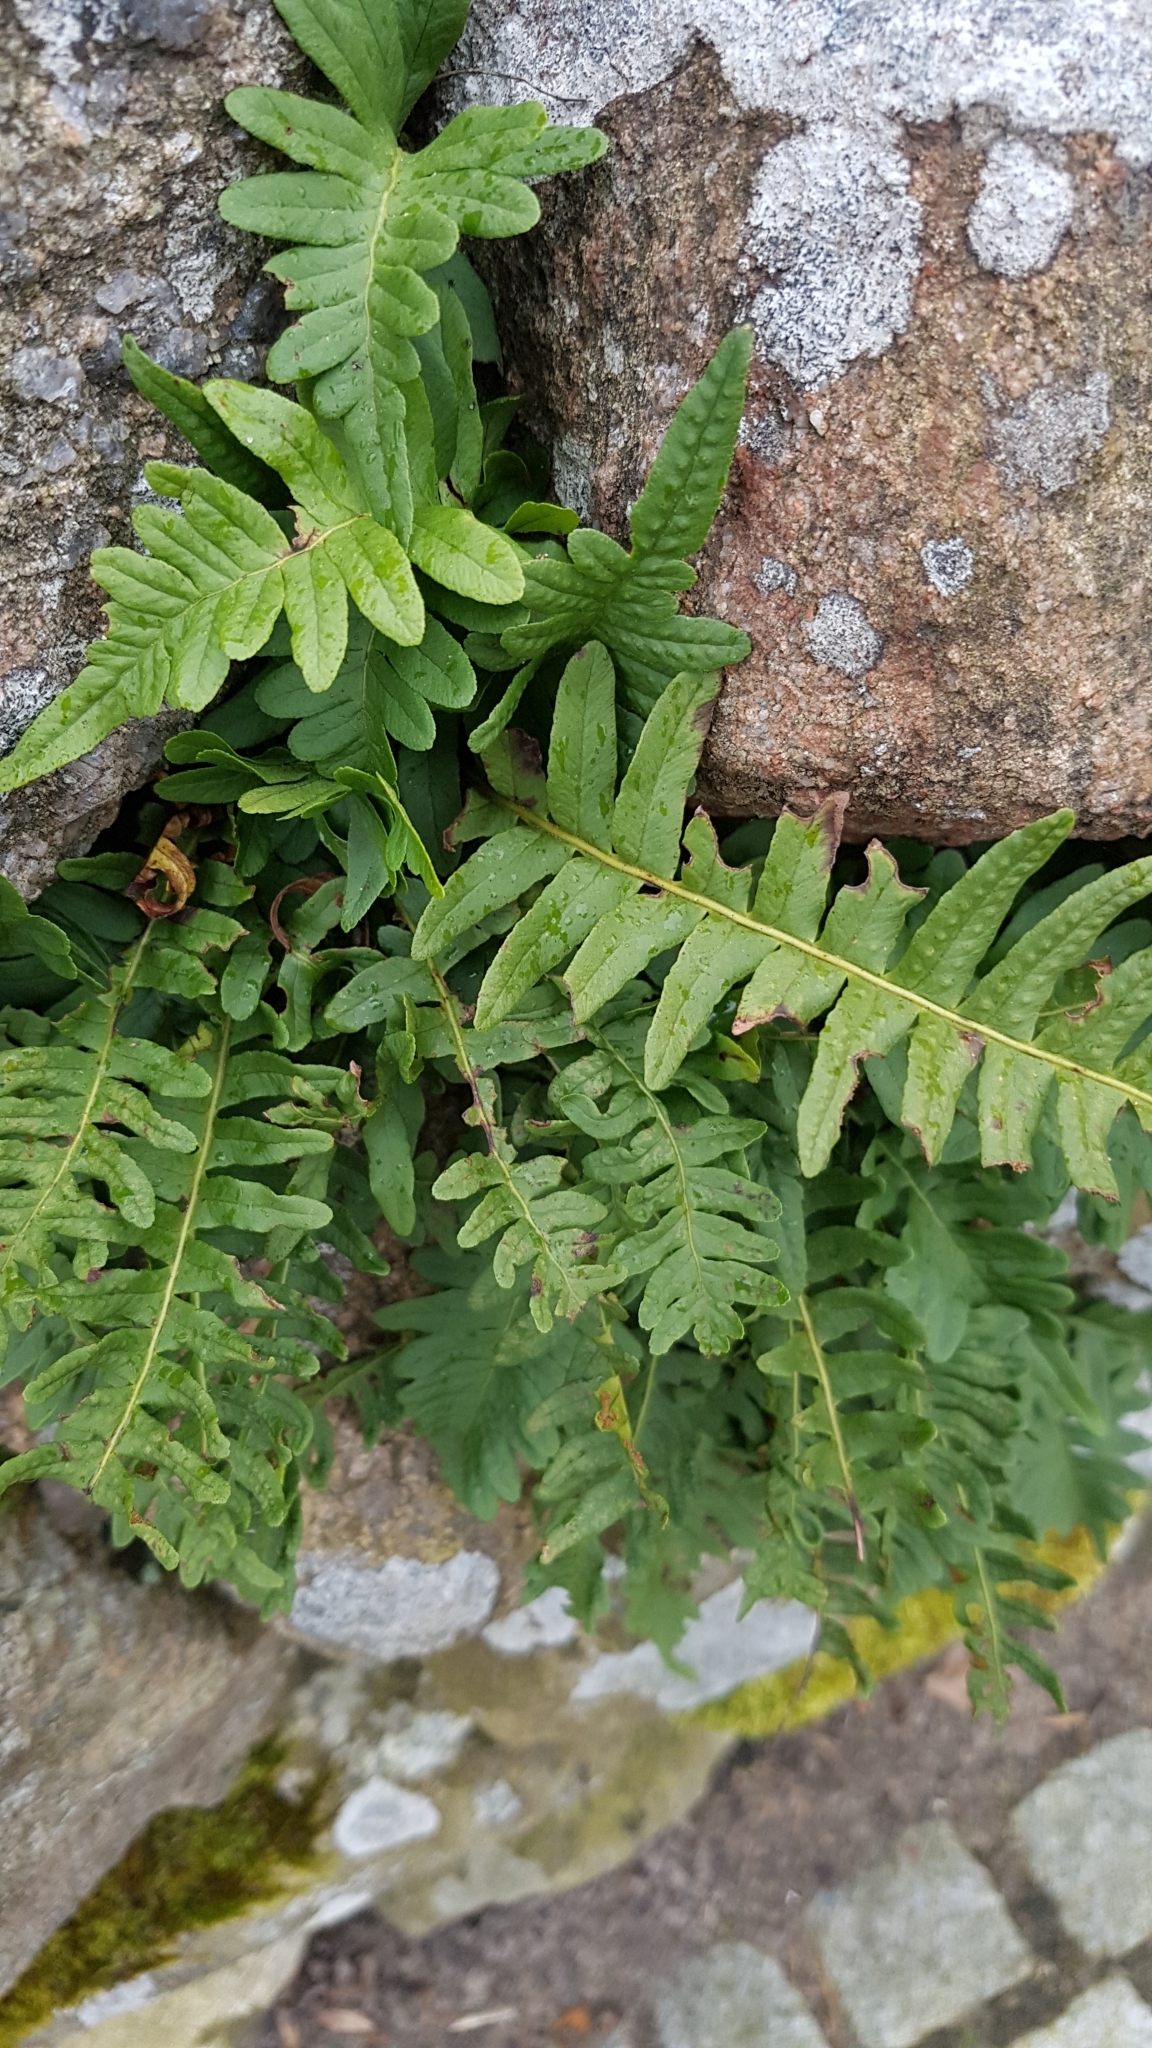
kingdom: Plantae
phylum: Tracheophyta
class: Polypodiopsida
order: Polypodiales
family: Polypodiaceae
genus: Polypodium
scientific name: Polypodium vulgare
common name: Common polypody
